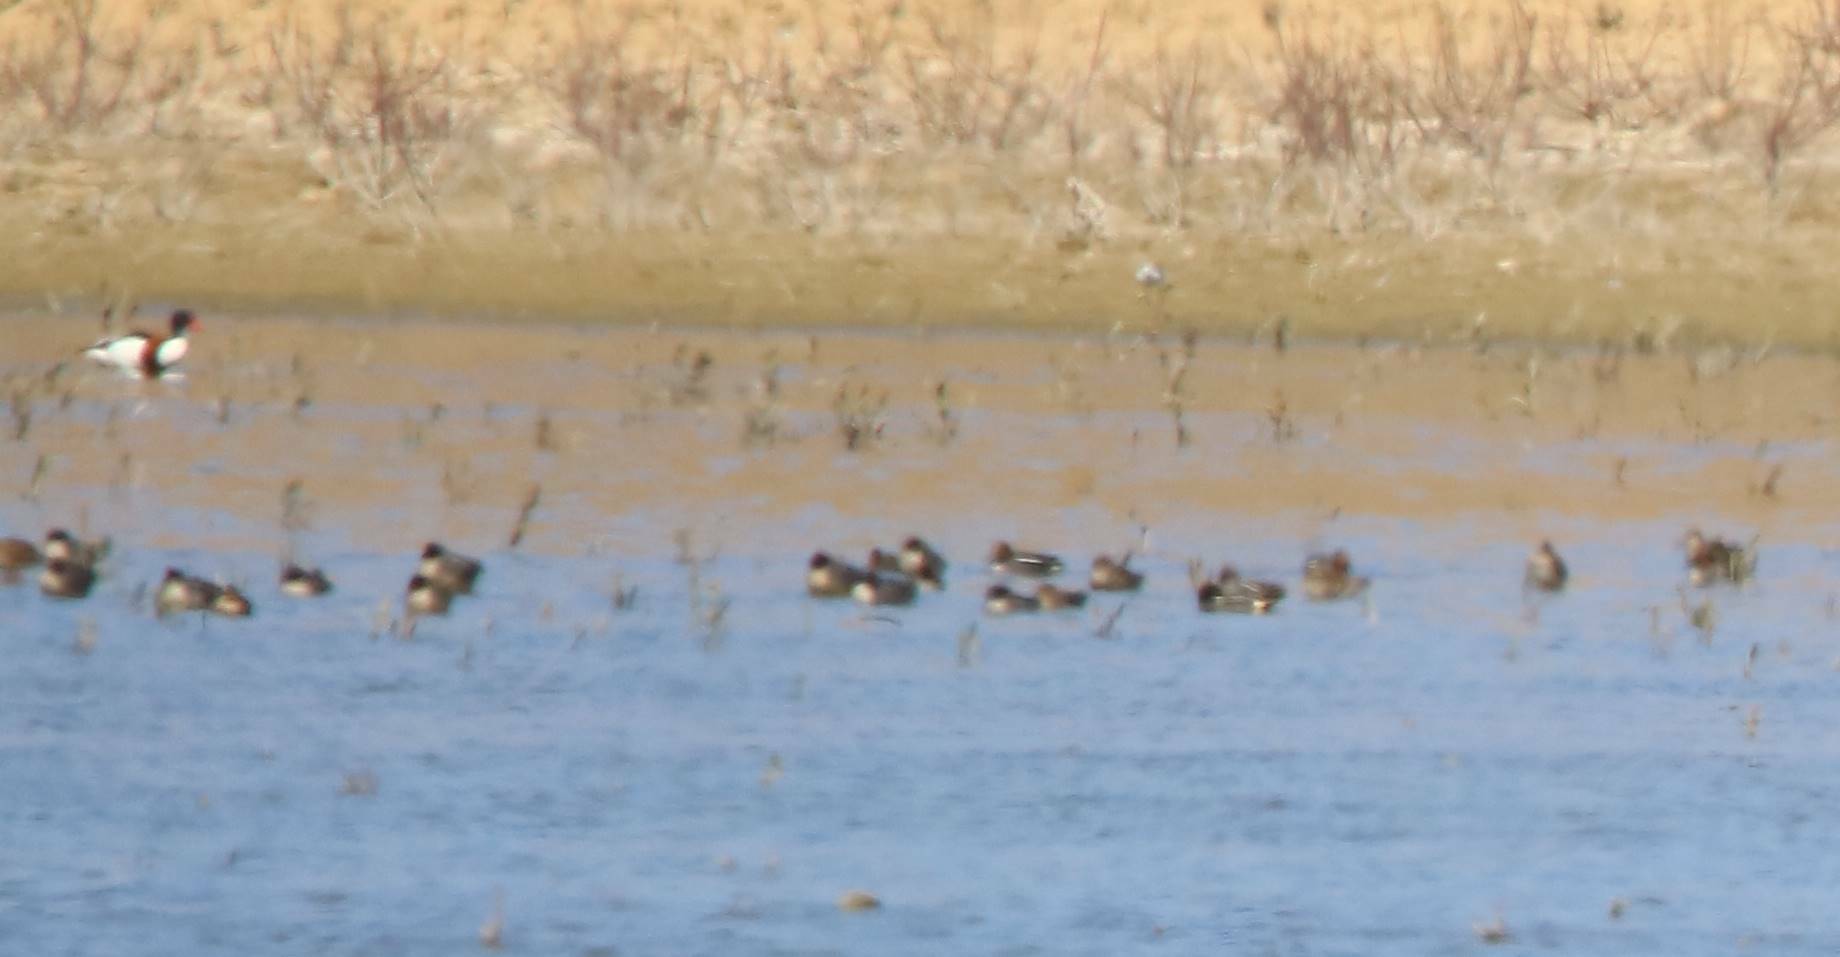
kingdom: Animalia
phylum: Chordata
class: Aves
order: Anseriformes
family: Anatidae
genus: Anas
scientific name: Anas crecca
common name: Eurasian teal
